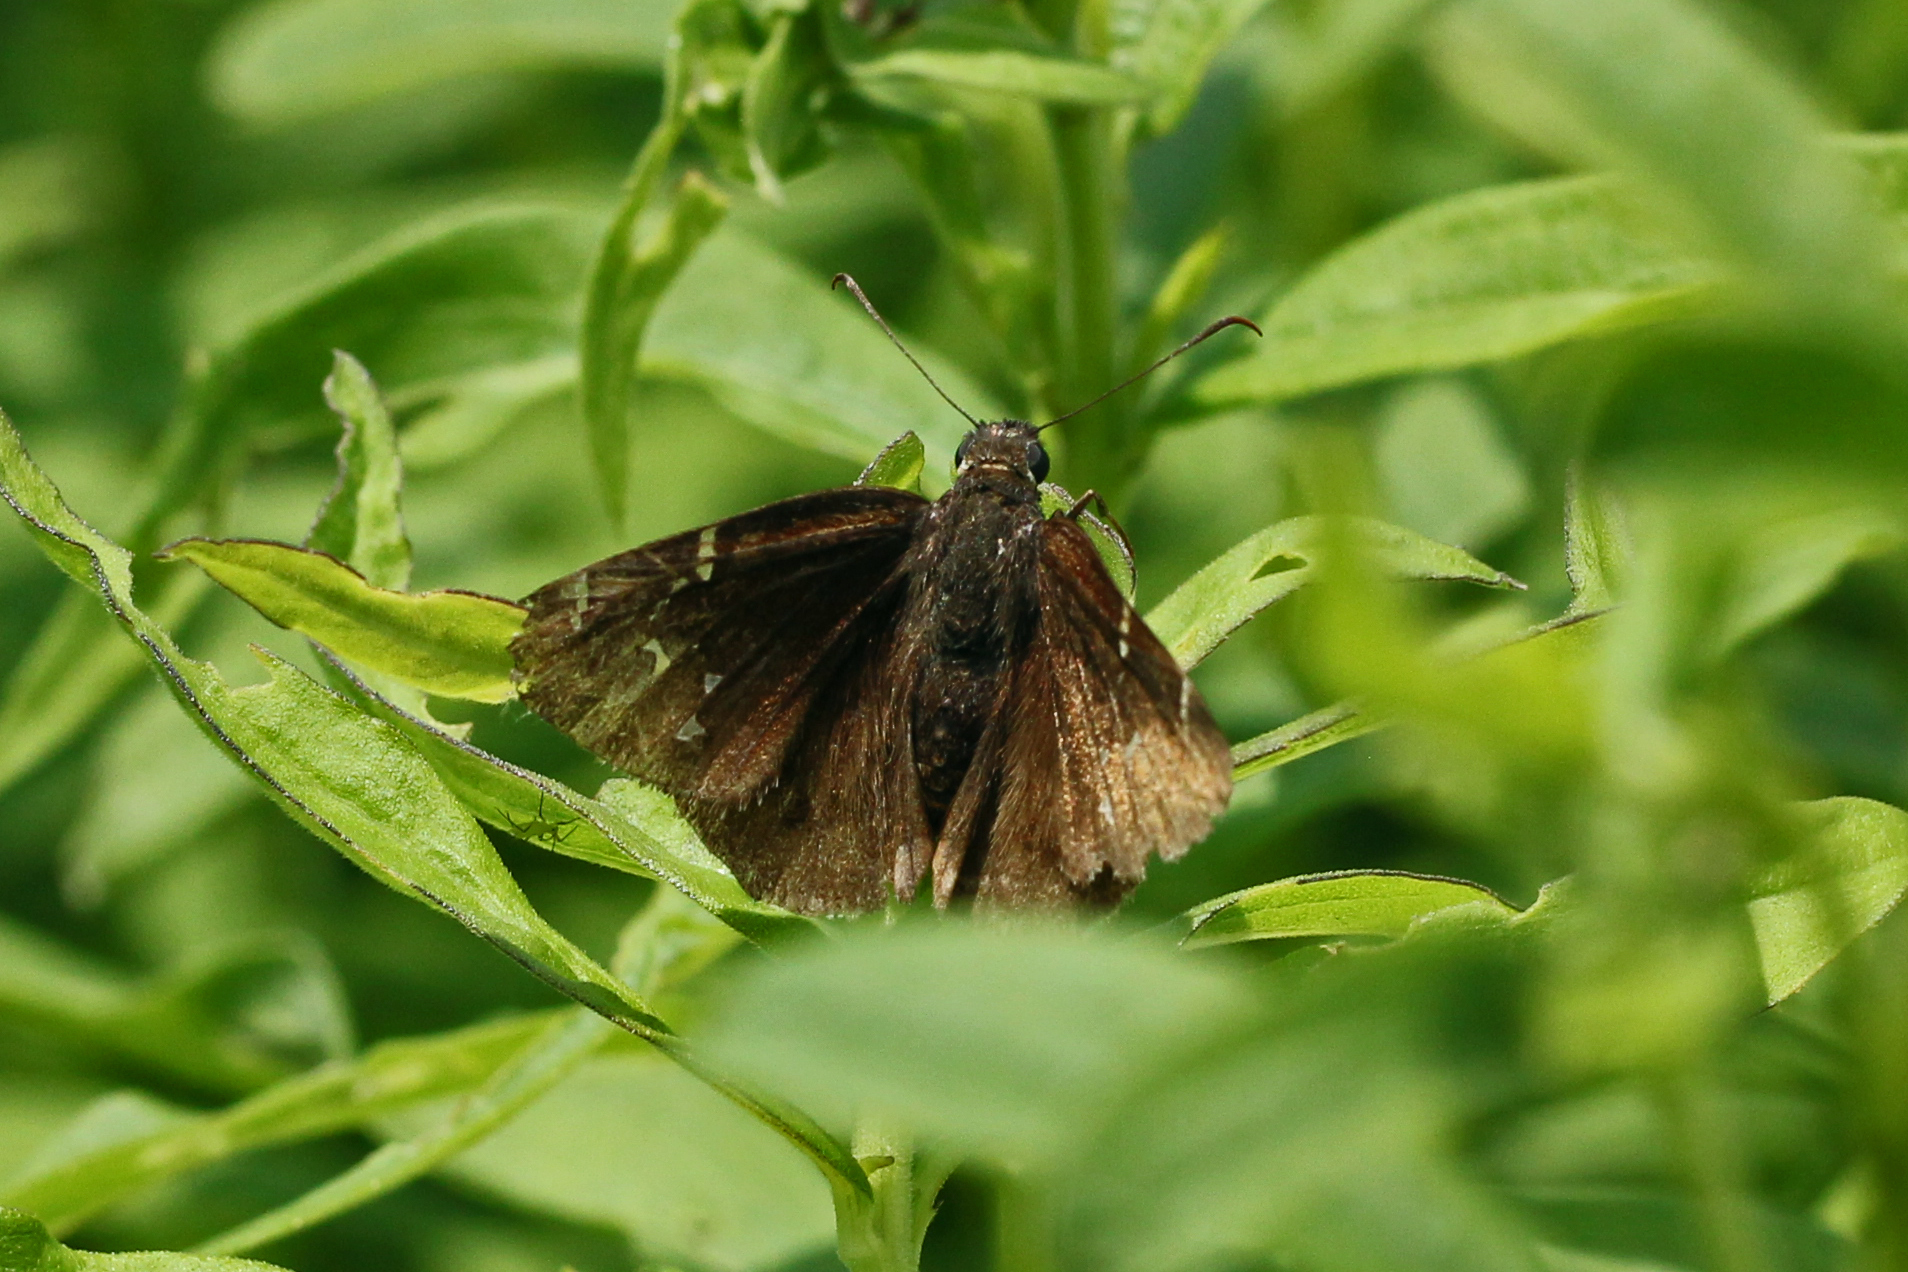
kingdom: Animalia
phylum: Arthropoda
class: Insecta
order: Lepidoptera
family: Hesperiidae
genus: Thorybes
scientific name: Thorybes pylades
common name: Northern cloudywing
